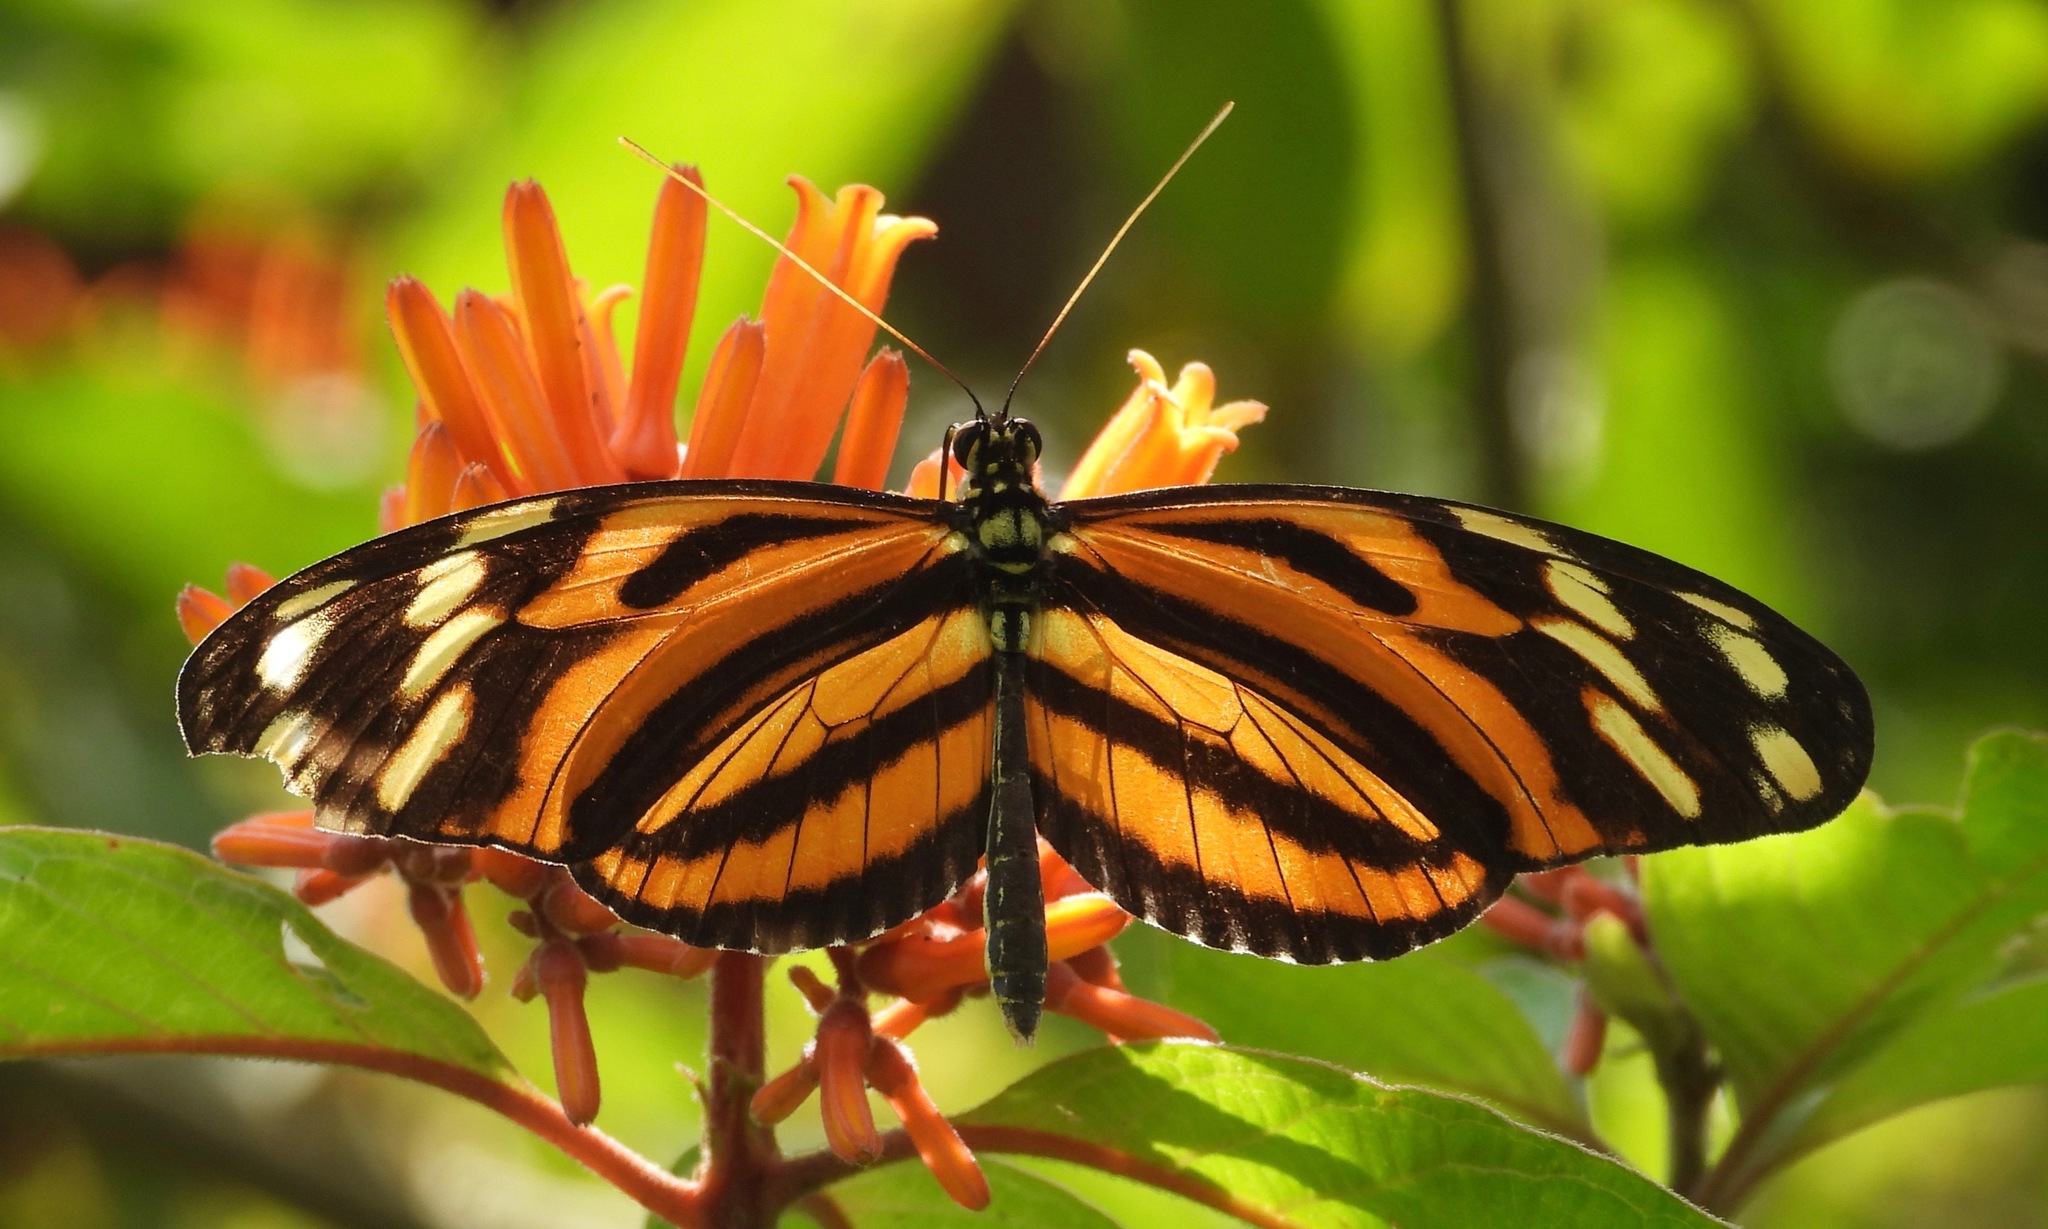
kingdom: Animalia
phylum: Arthropoda
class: Insecta
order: Lepidoptera
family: Nymphalidae
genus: Heliconius
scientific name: Heliconius ismenius
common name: Ismenius tiger
